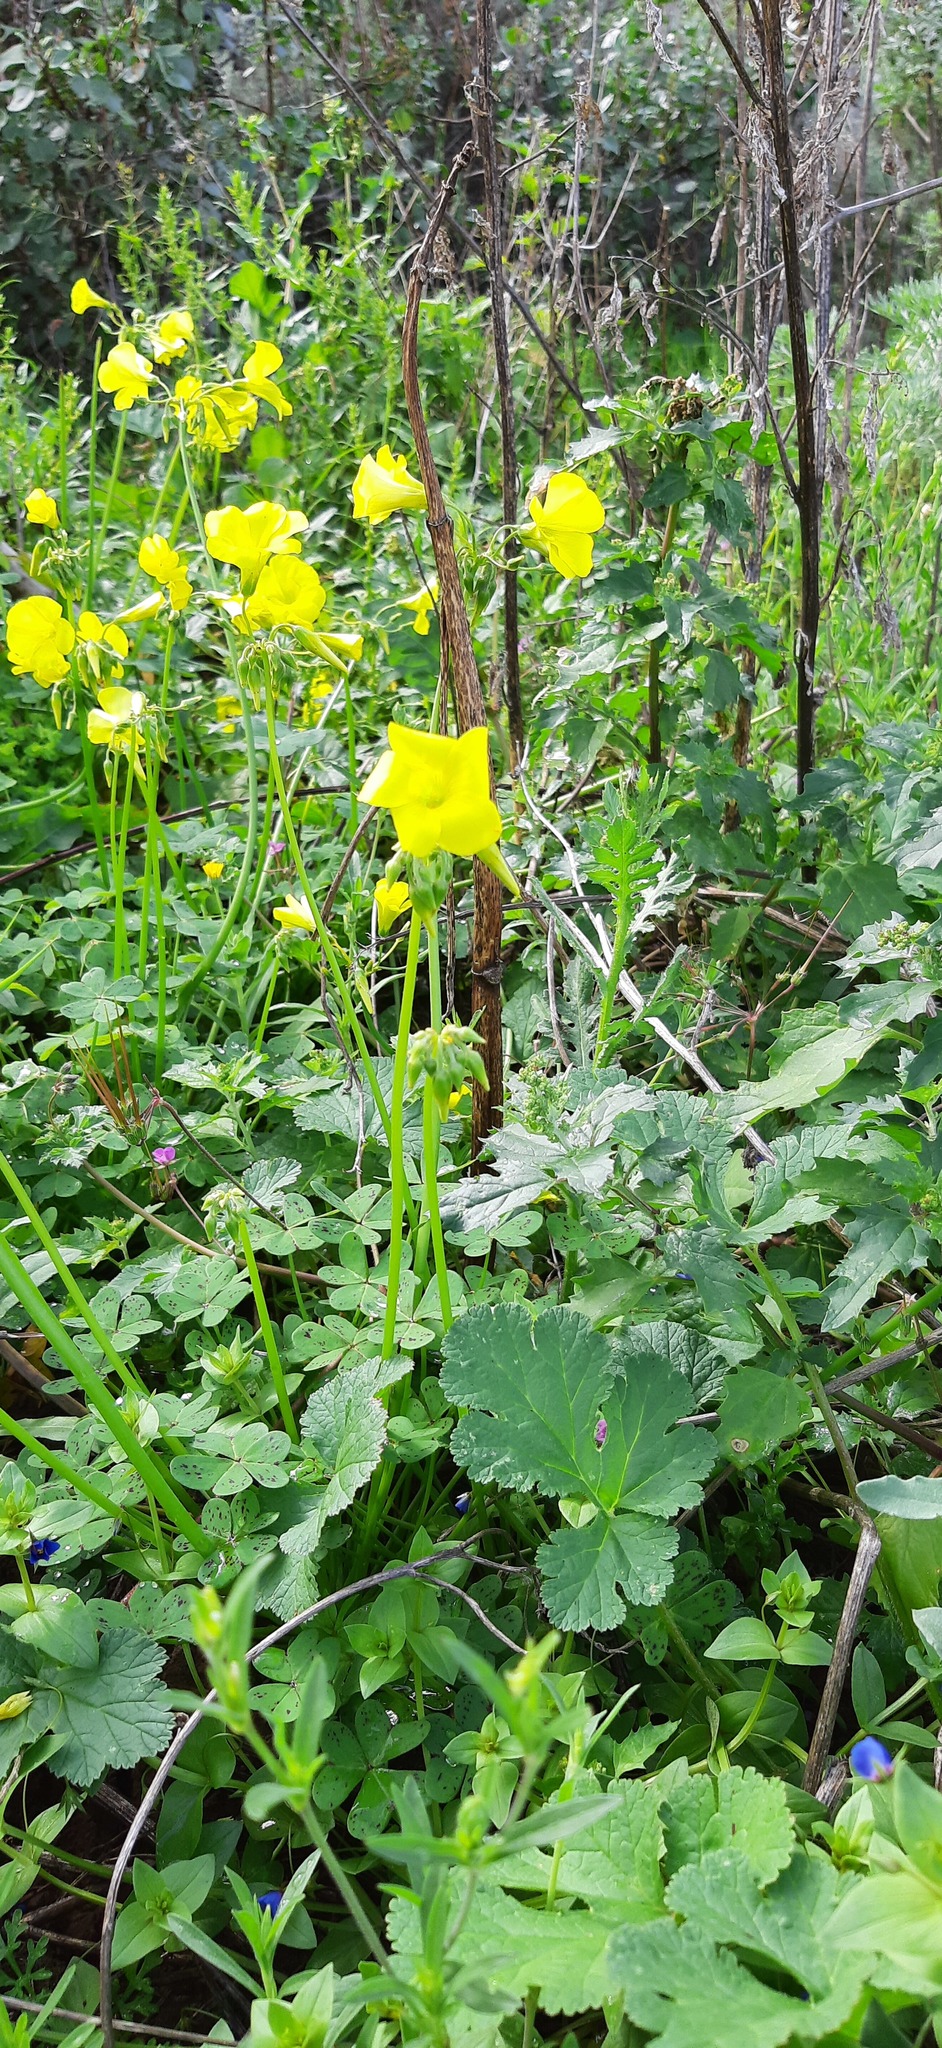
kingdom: Plantae
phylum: Tracheophyta
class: Magnoliopsida
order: Oxalidales
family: Oxalidaceae
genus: Oxalis
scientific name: Oxalis pes-caprae
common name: Bermuda-buttercup
